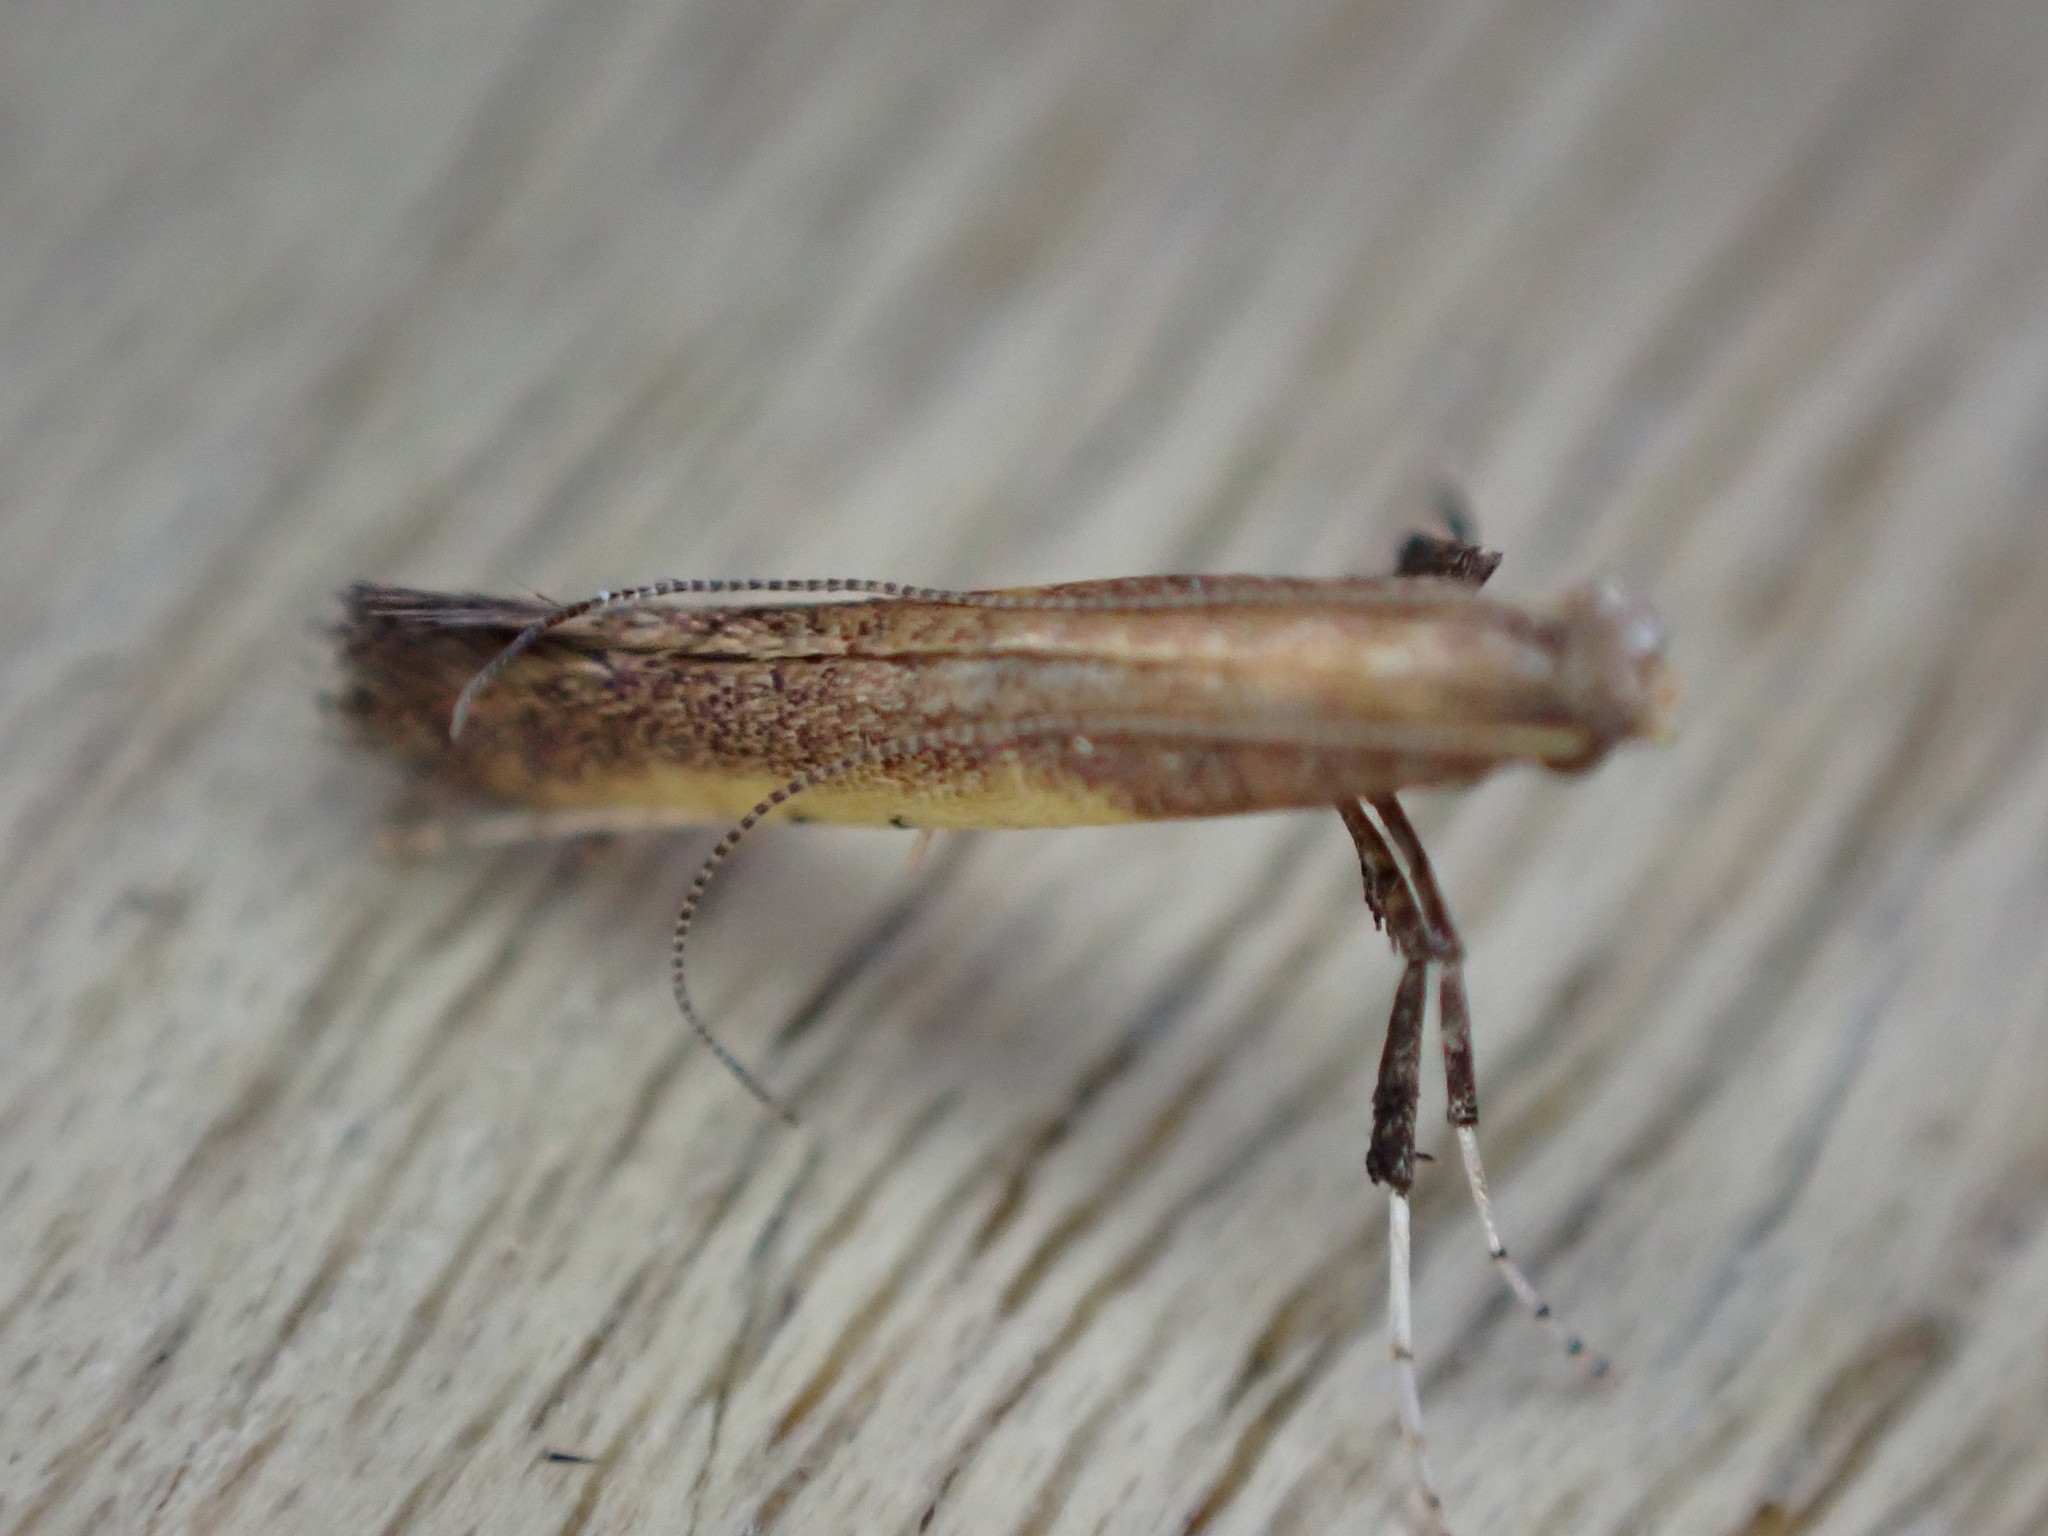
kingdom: Animalia
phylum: Arthropoda
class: Insecta
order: Lepidoptera
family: Gracillariidae
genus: Caloptilia
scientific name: Caloptilia azaleella
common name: Azalea leafminer
